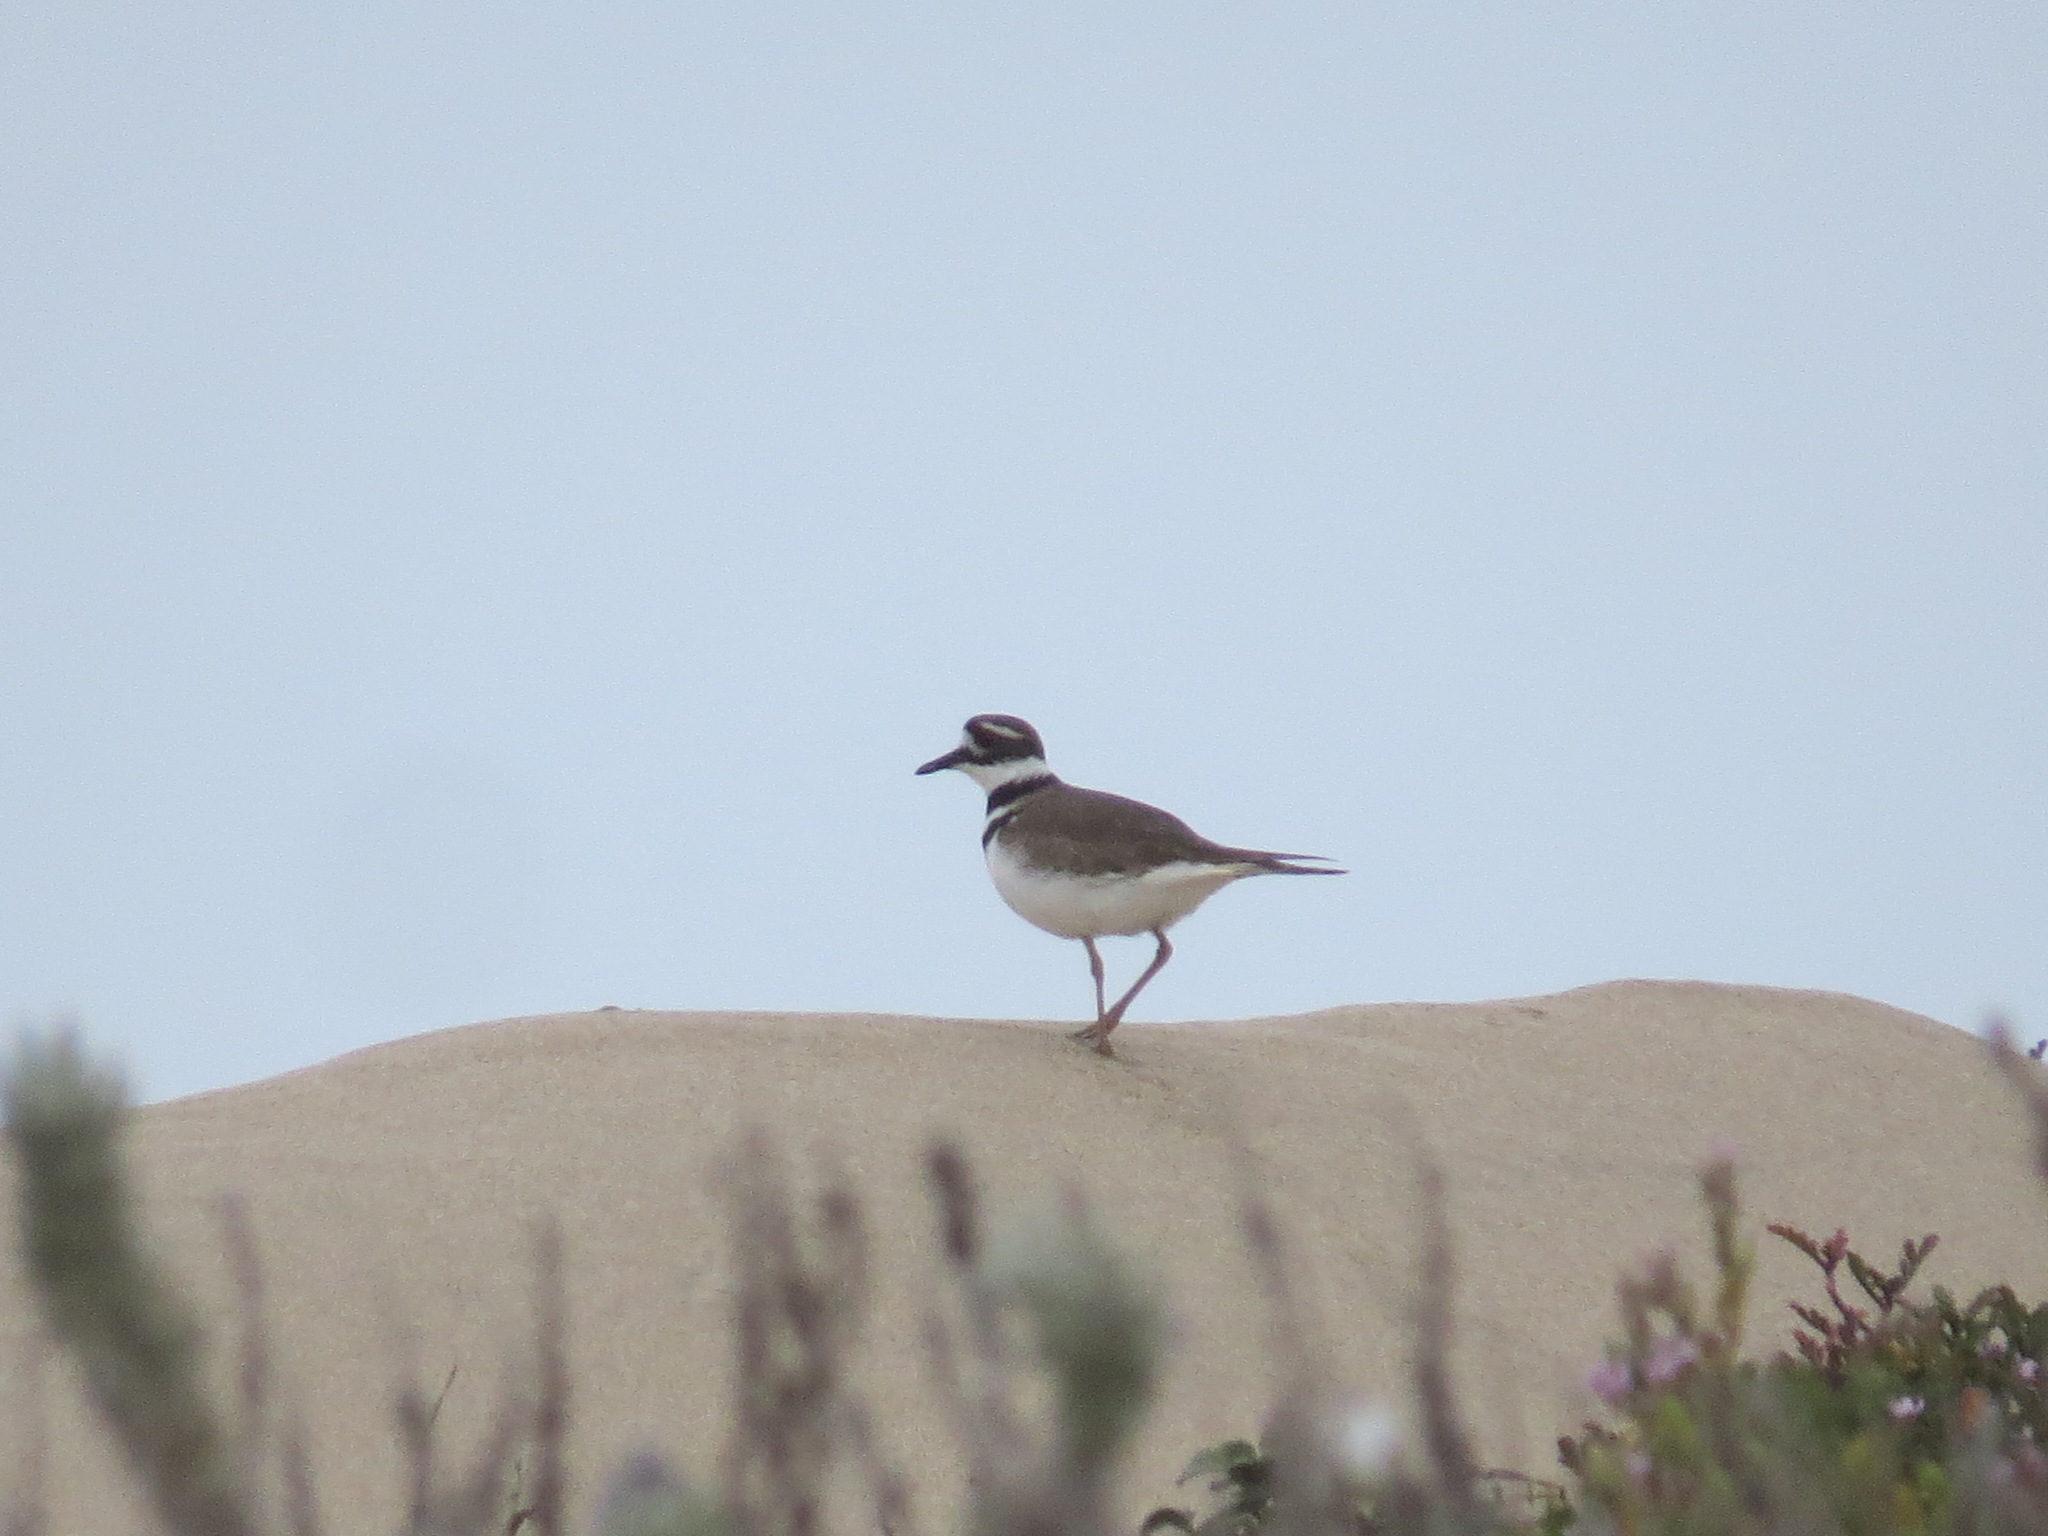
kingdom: Animalia
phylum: Chordata
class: Aves
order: Charadriiformes
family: Charadriidae
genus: Charadrius
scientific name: Charadrius vociferus
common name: Killdeer
